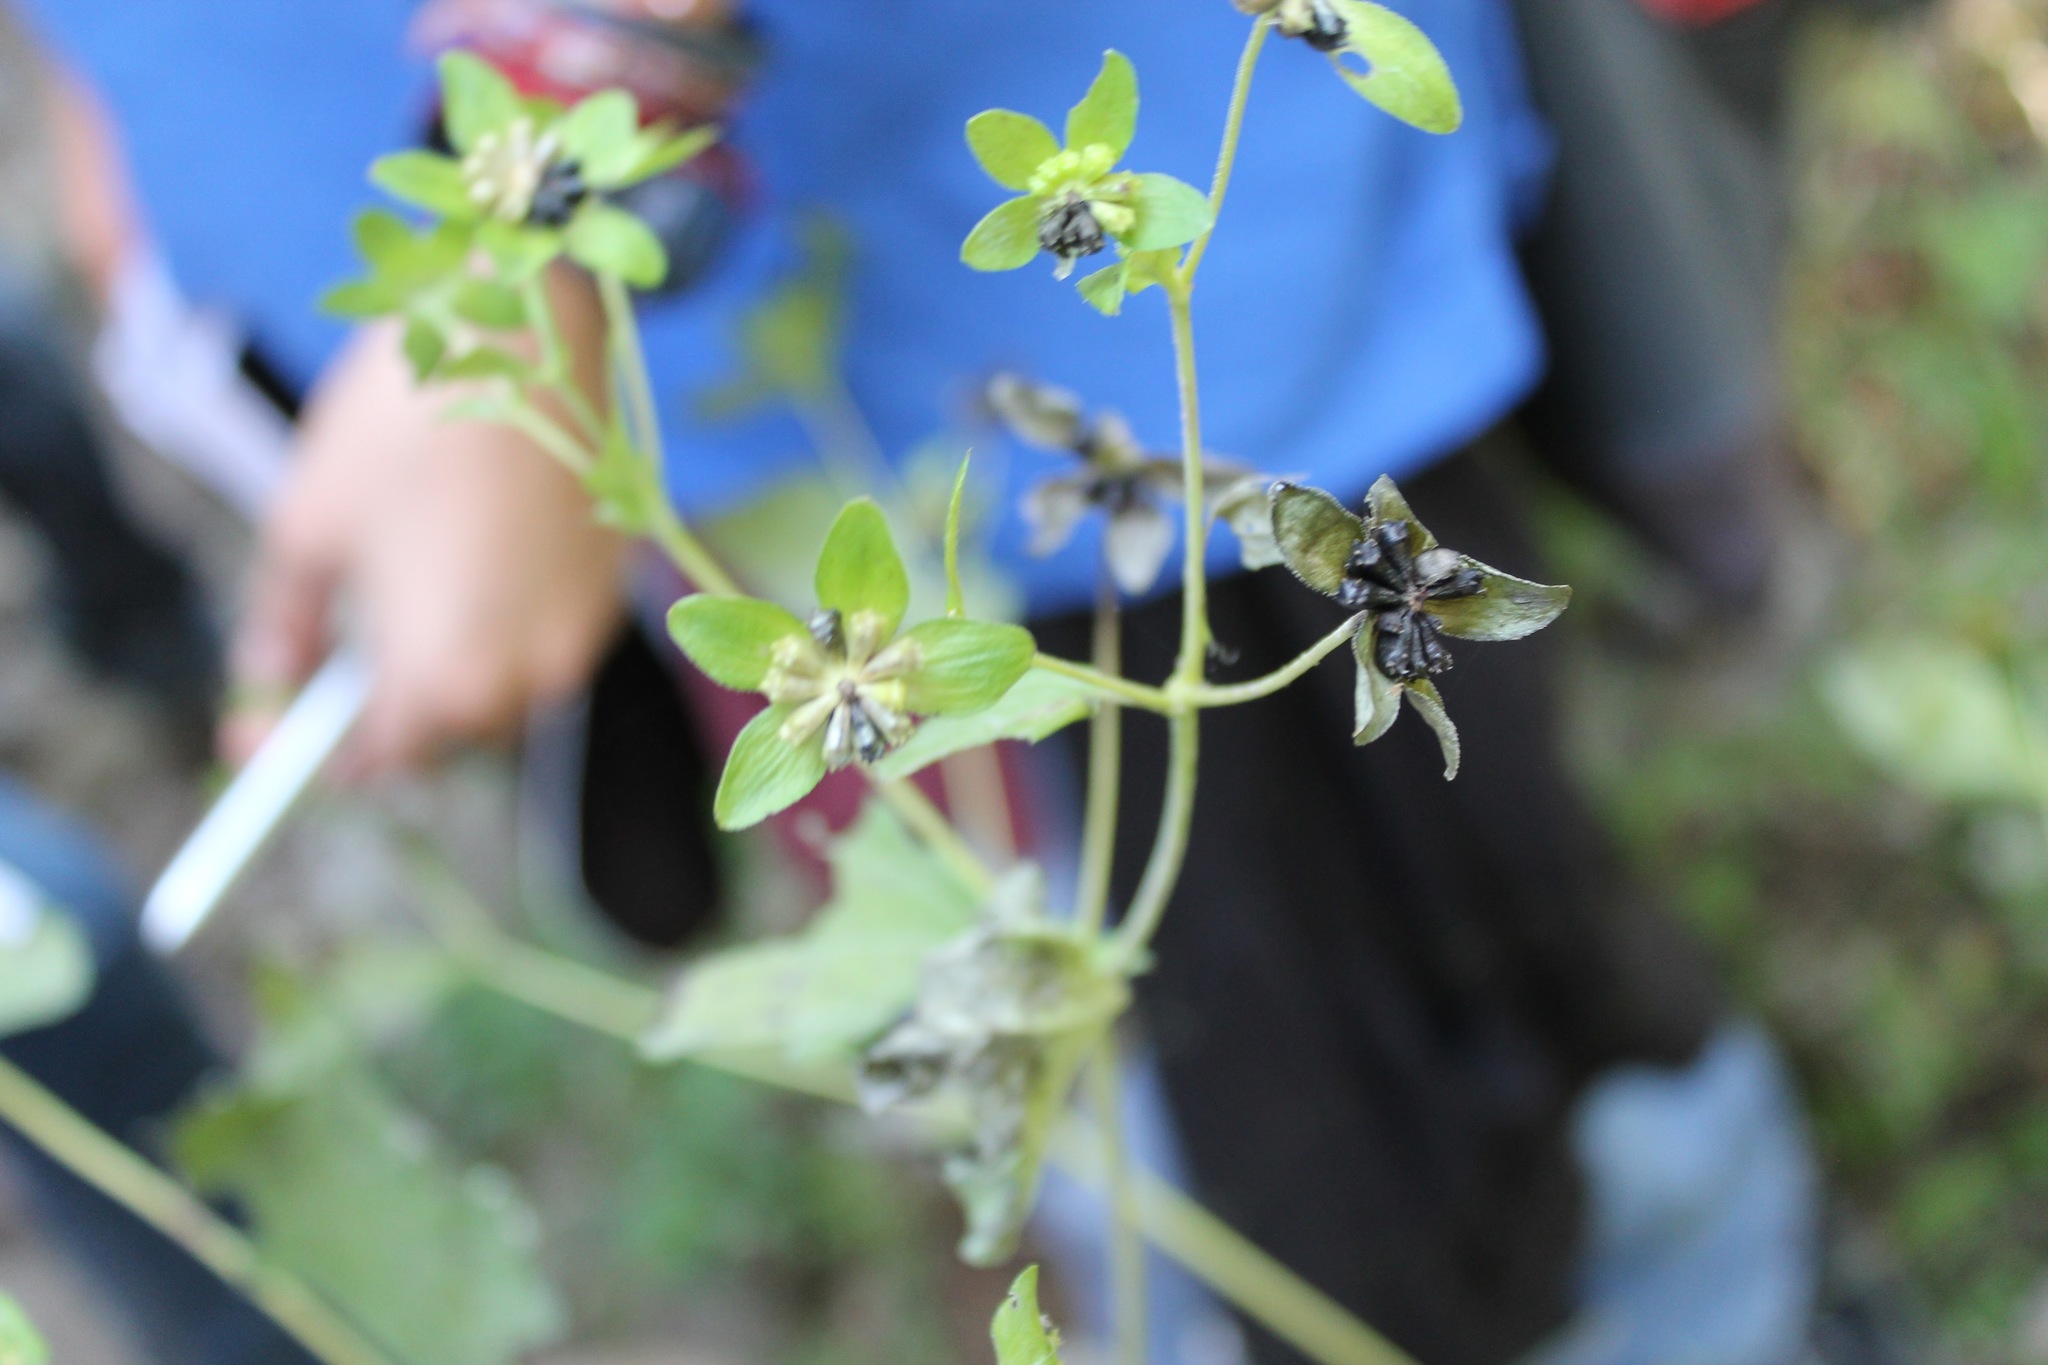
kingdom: Plantae
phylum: Tracheophyta
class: Magnoliopsida
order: Asterales
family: Asteraceae
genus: Melampodium
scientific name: Melampodium perfoliatum
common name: Perfoliate blackfoot
